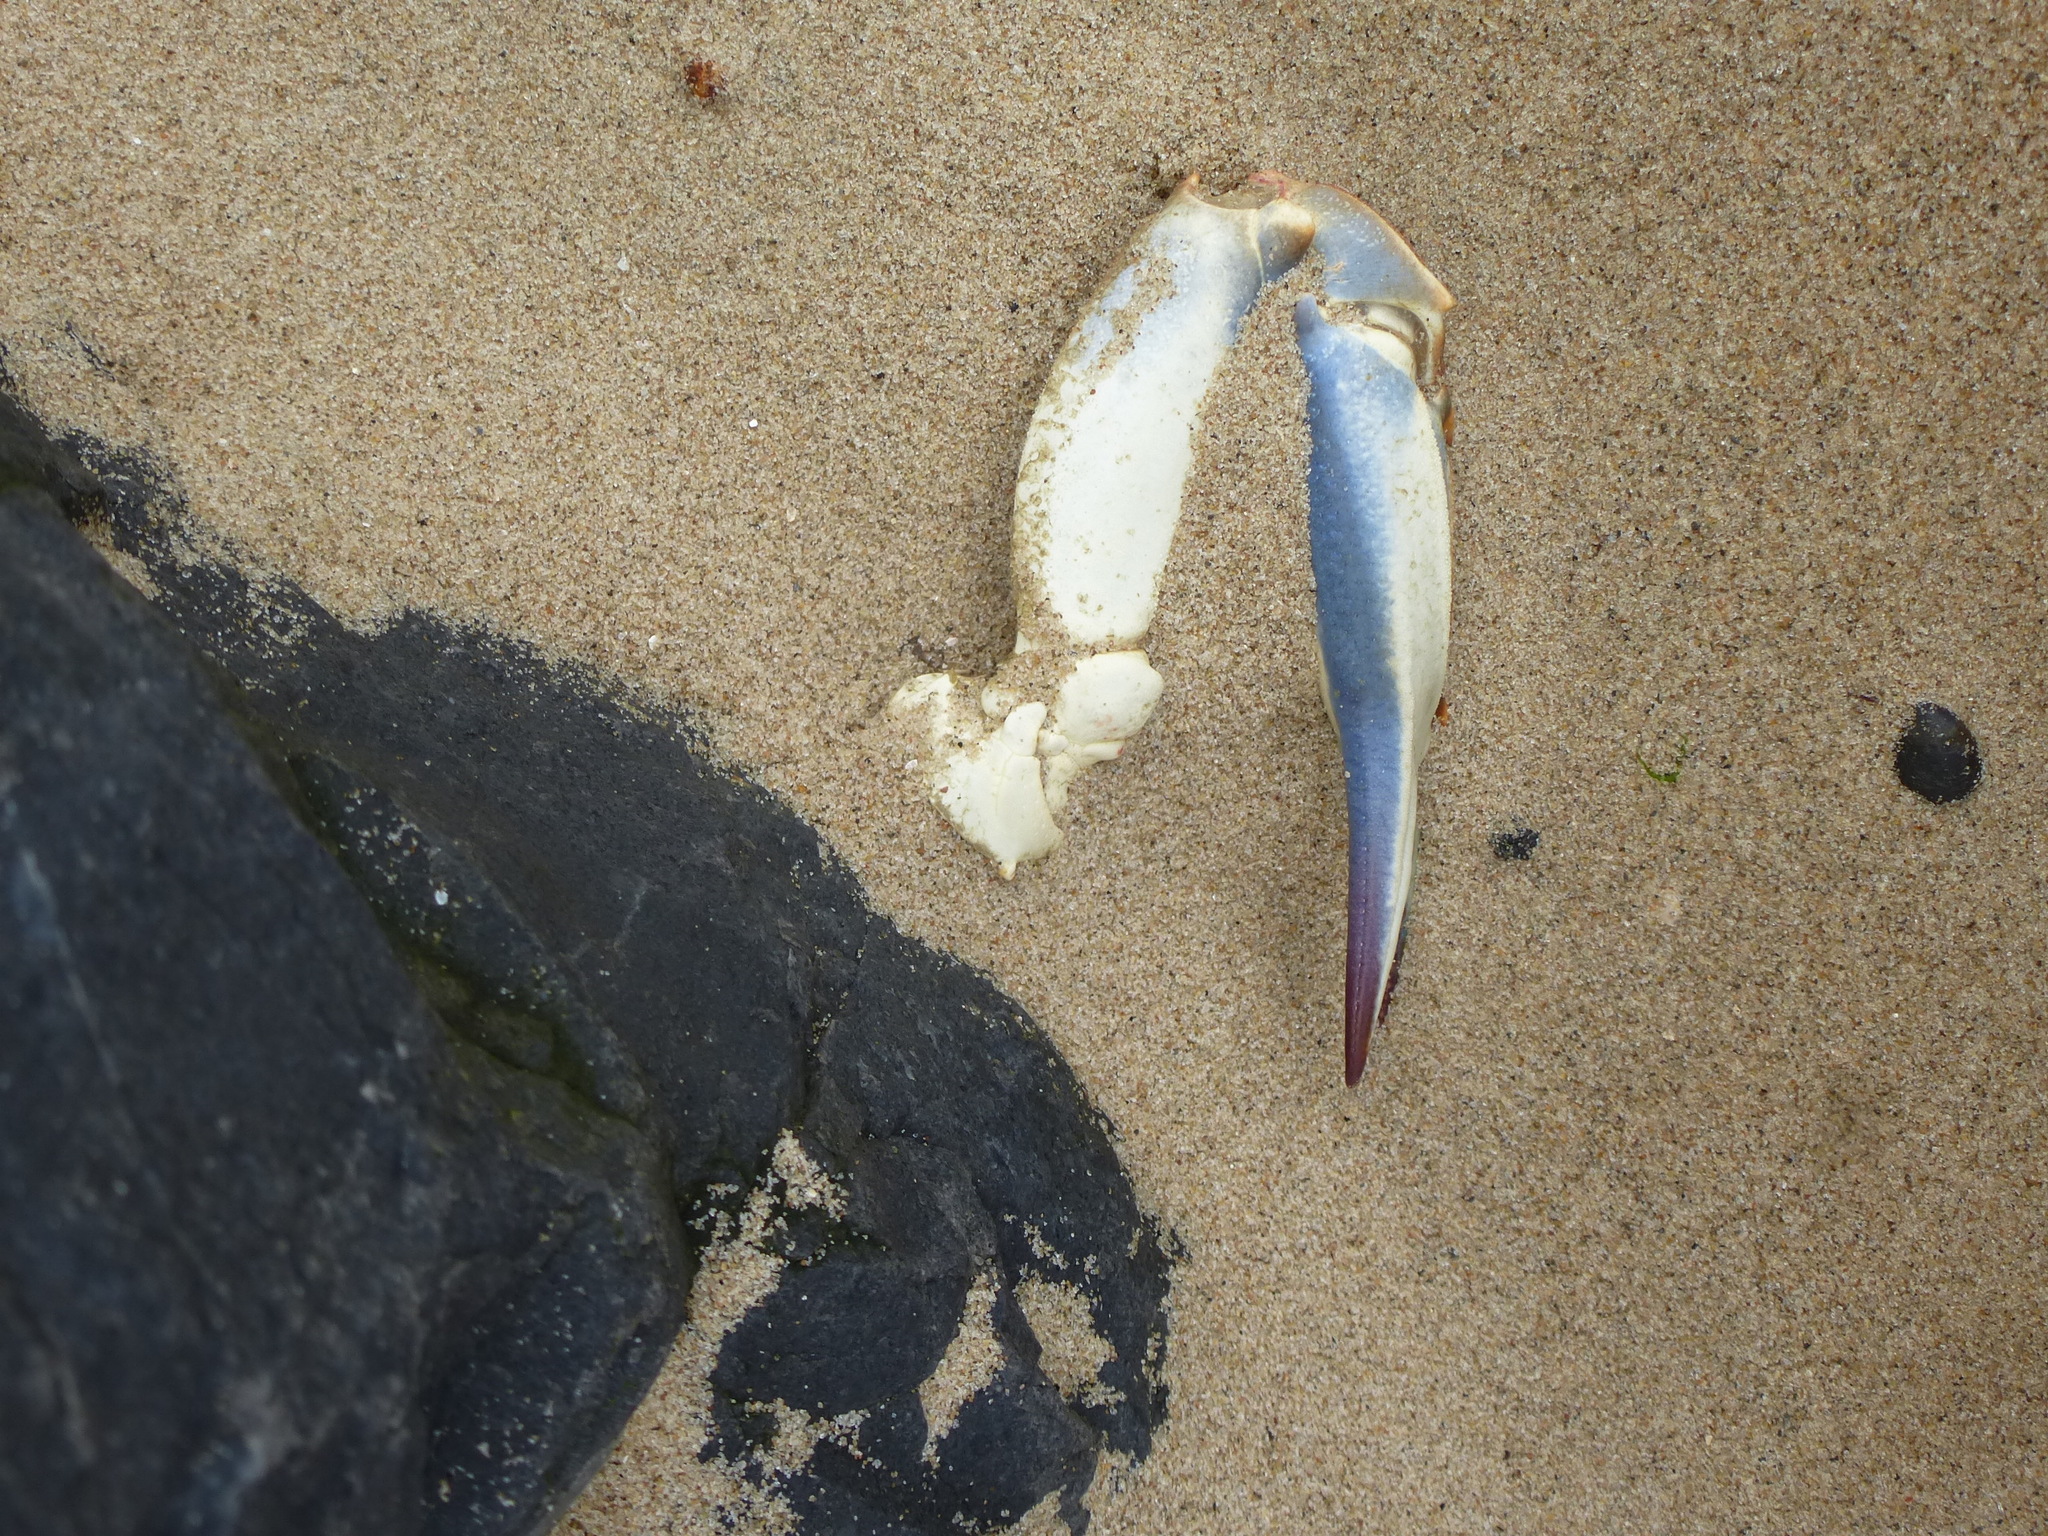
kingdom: Animalia
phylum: Arthropoda
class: Malacostraca
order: Decapoda
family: Portunidae
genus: Callinectes
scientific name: Callinectes sapidus
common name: Blue crab
